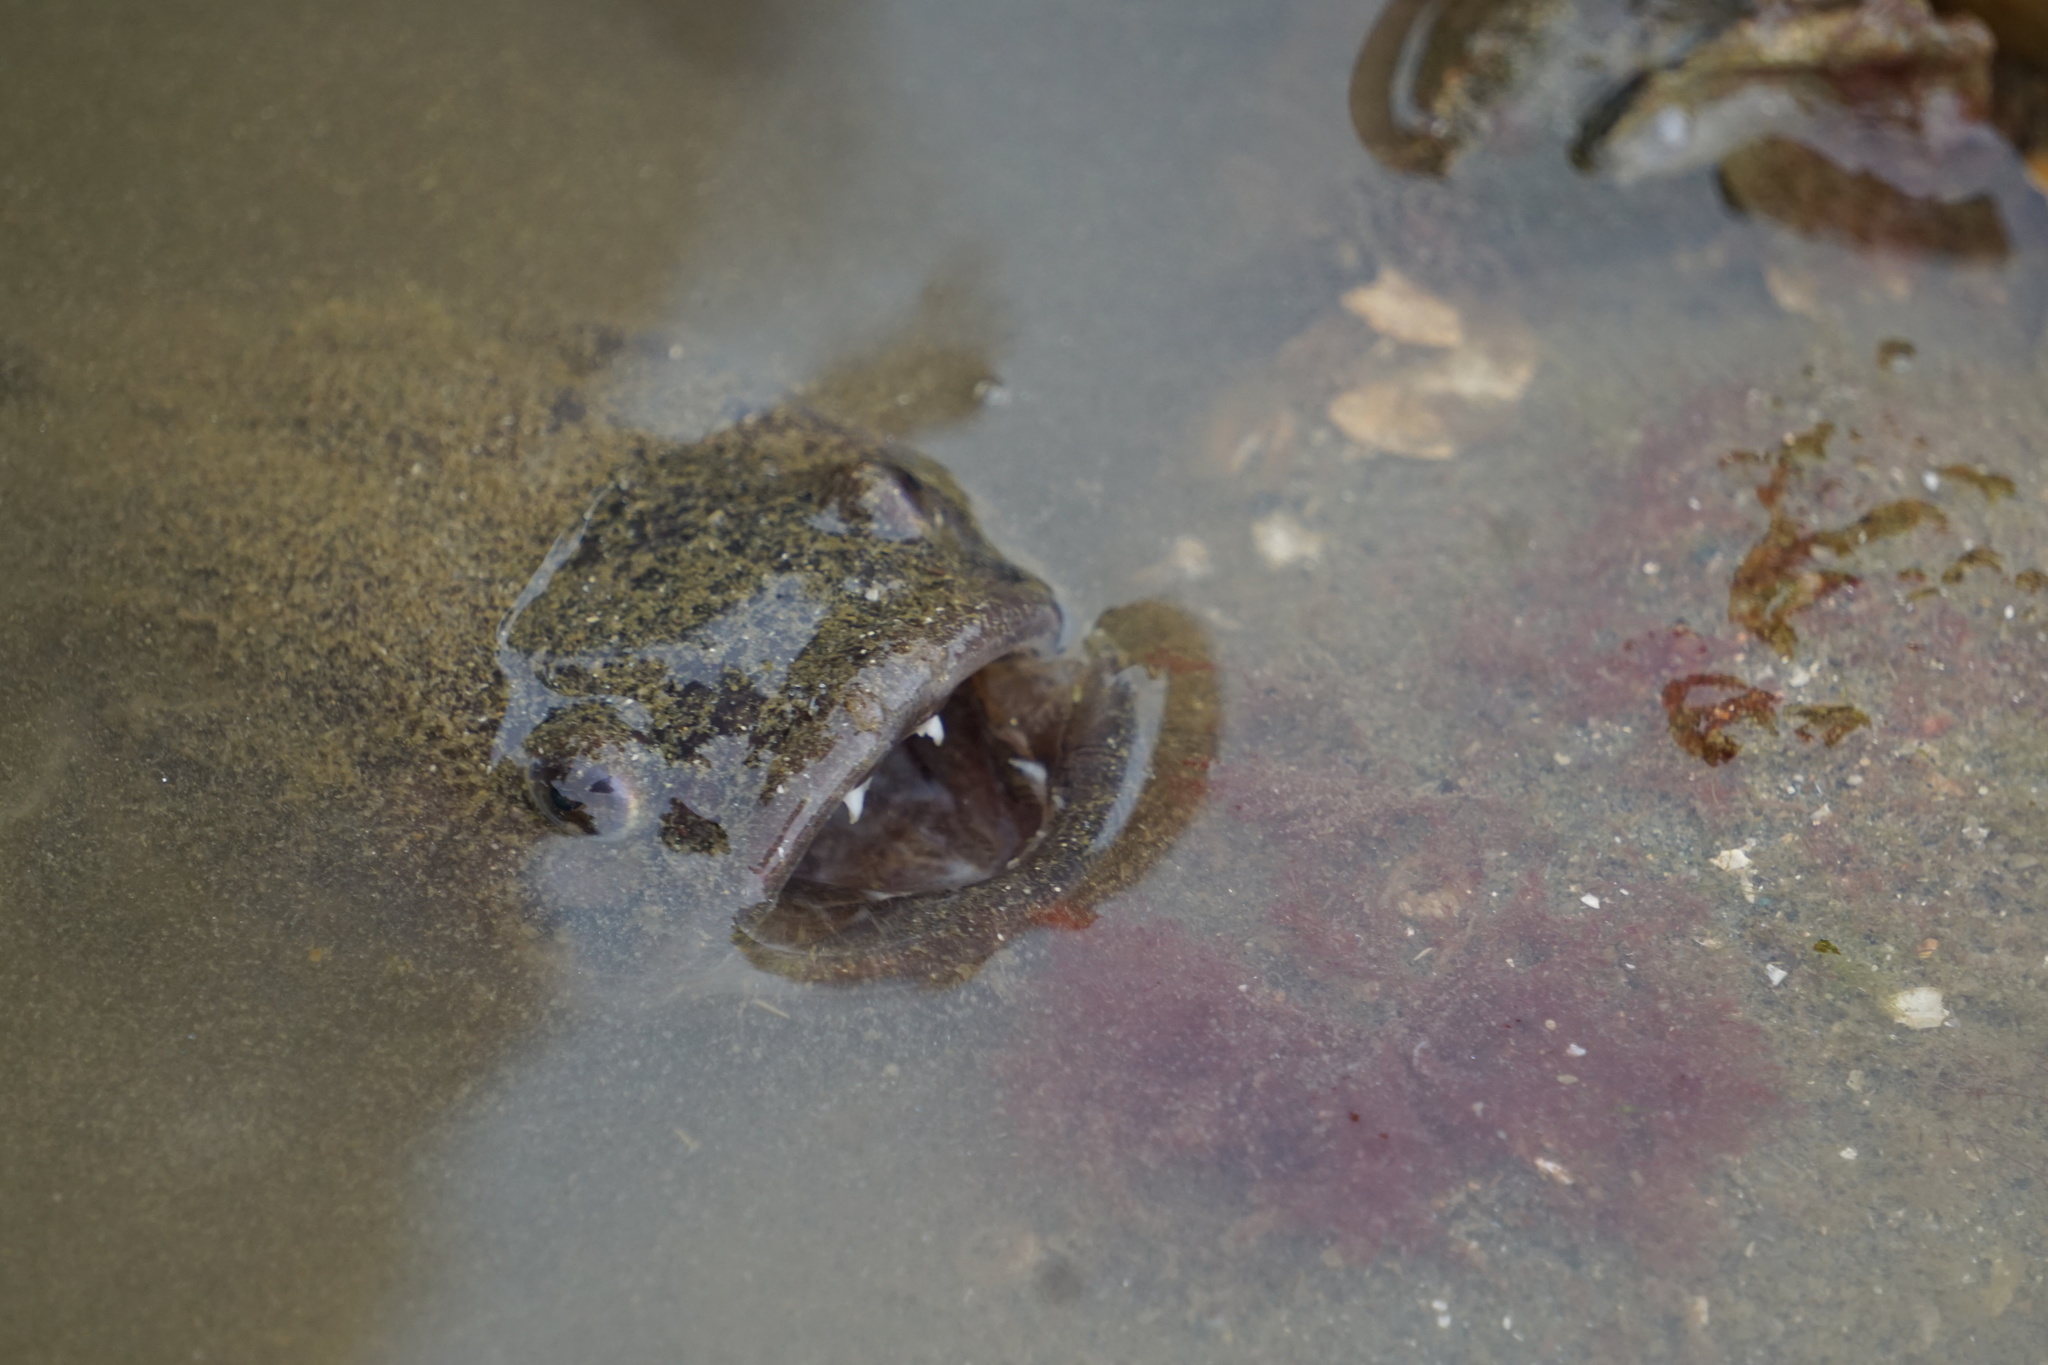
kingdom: Animalia
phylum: Chordata
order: Batrachoidiformes
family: Batrachoididae
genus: Porichthys
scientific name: Porichthys notatus
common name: Plainfin midshipman
